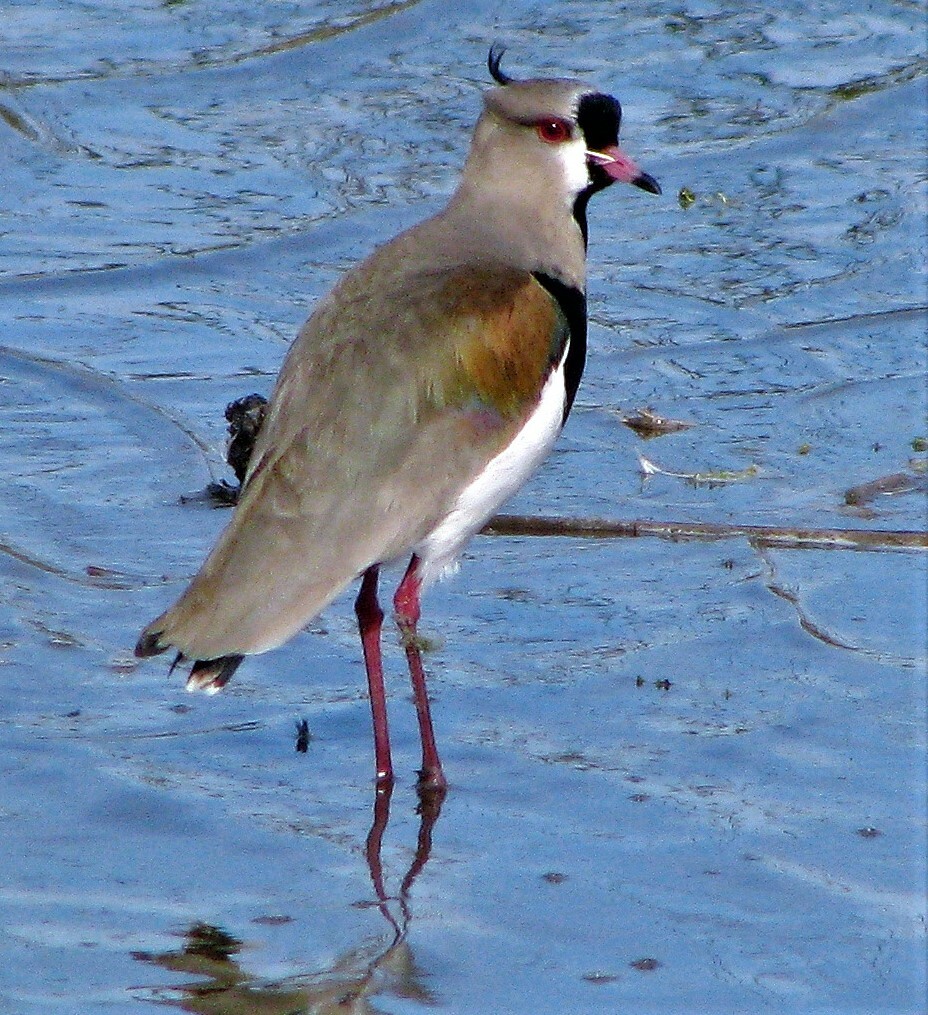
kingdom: Animalia
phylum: Chordata
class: Aves
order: Charadriiformes
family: Charadriidae
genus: Vanellus
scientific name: Vanellus chilensis
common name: Southern lapwing
